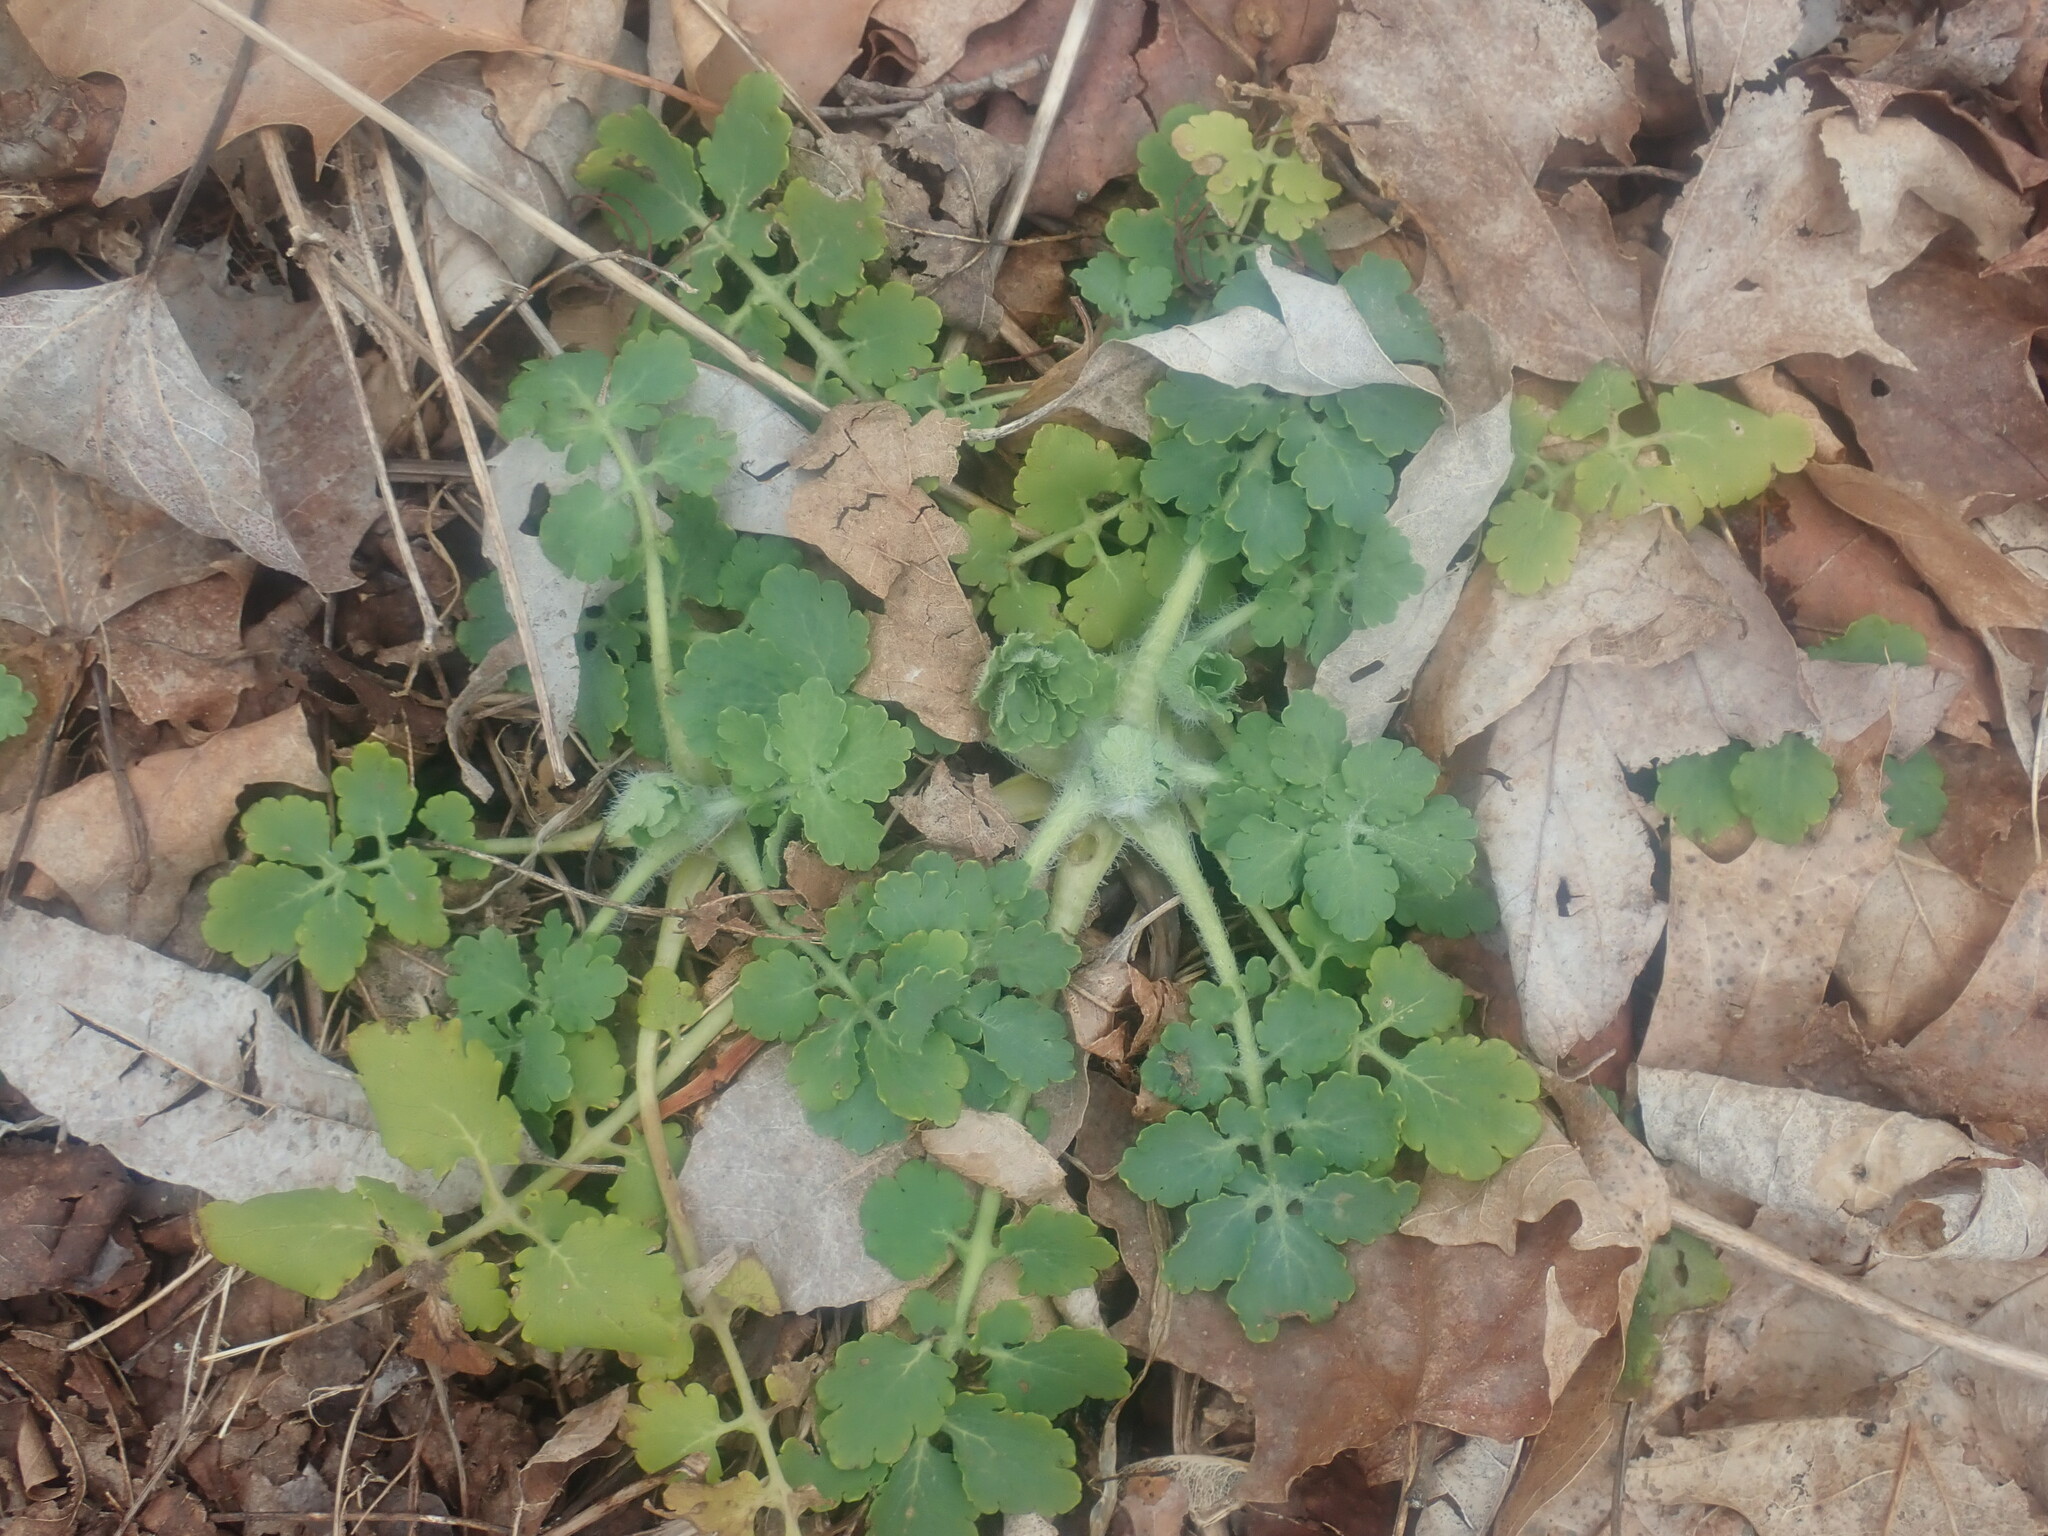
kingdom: Plantae
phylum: Tracheophyta
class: Magnoliopsida
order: Ranunculales
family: Papaveraceae
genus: Chelidonium
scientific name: Chelidonium majus
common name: Greater celandine
